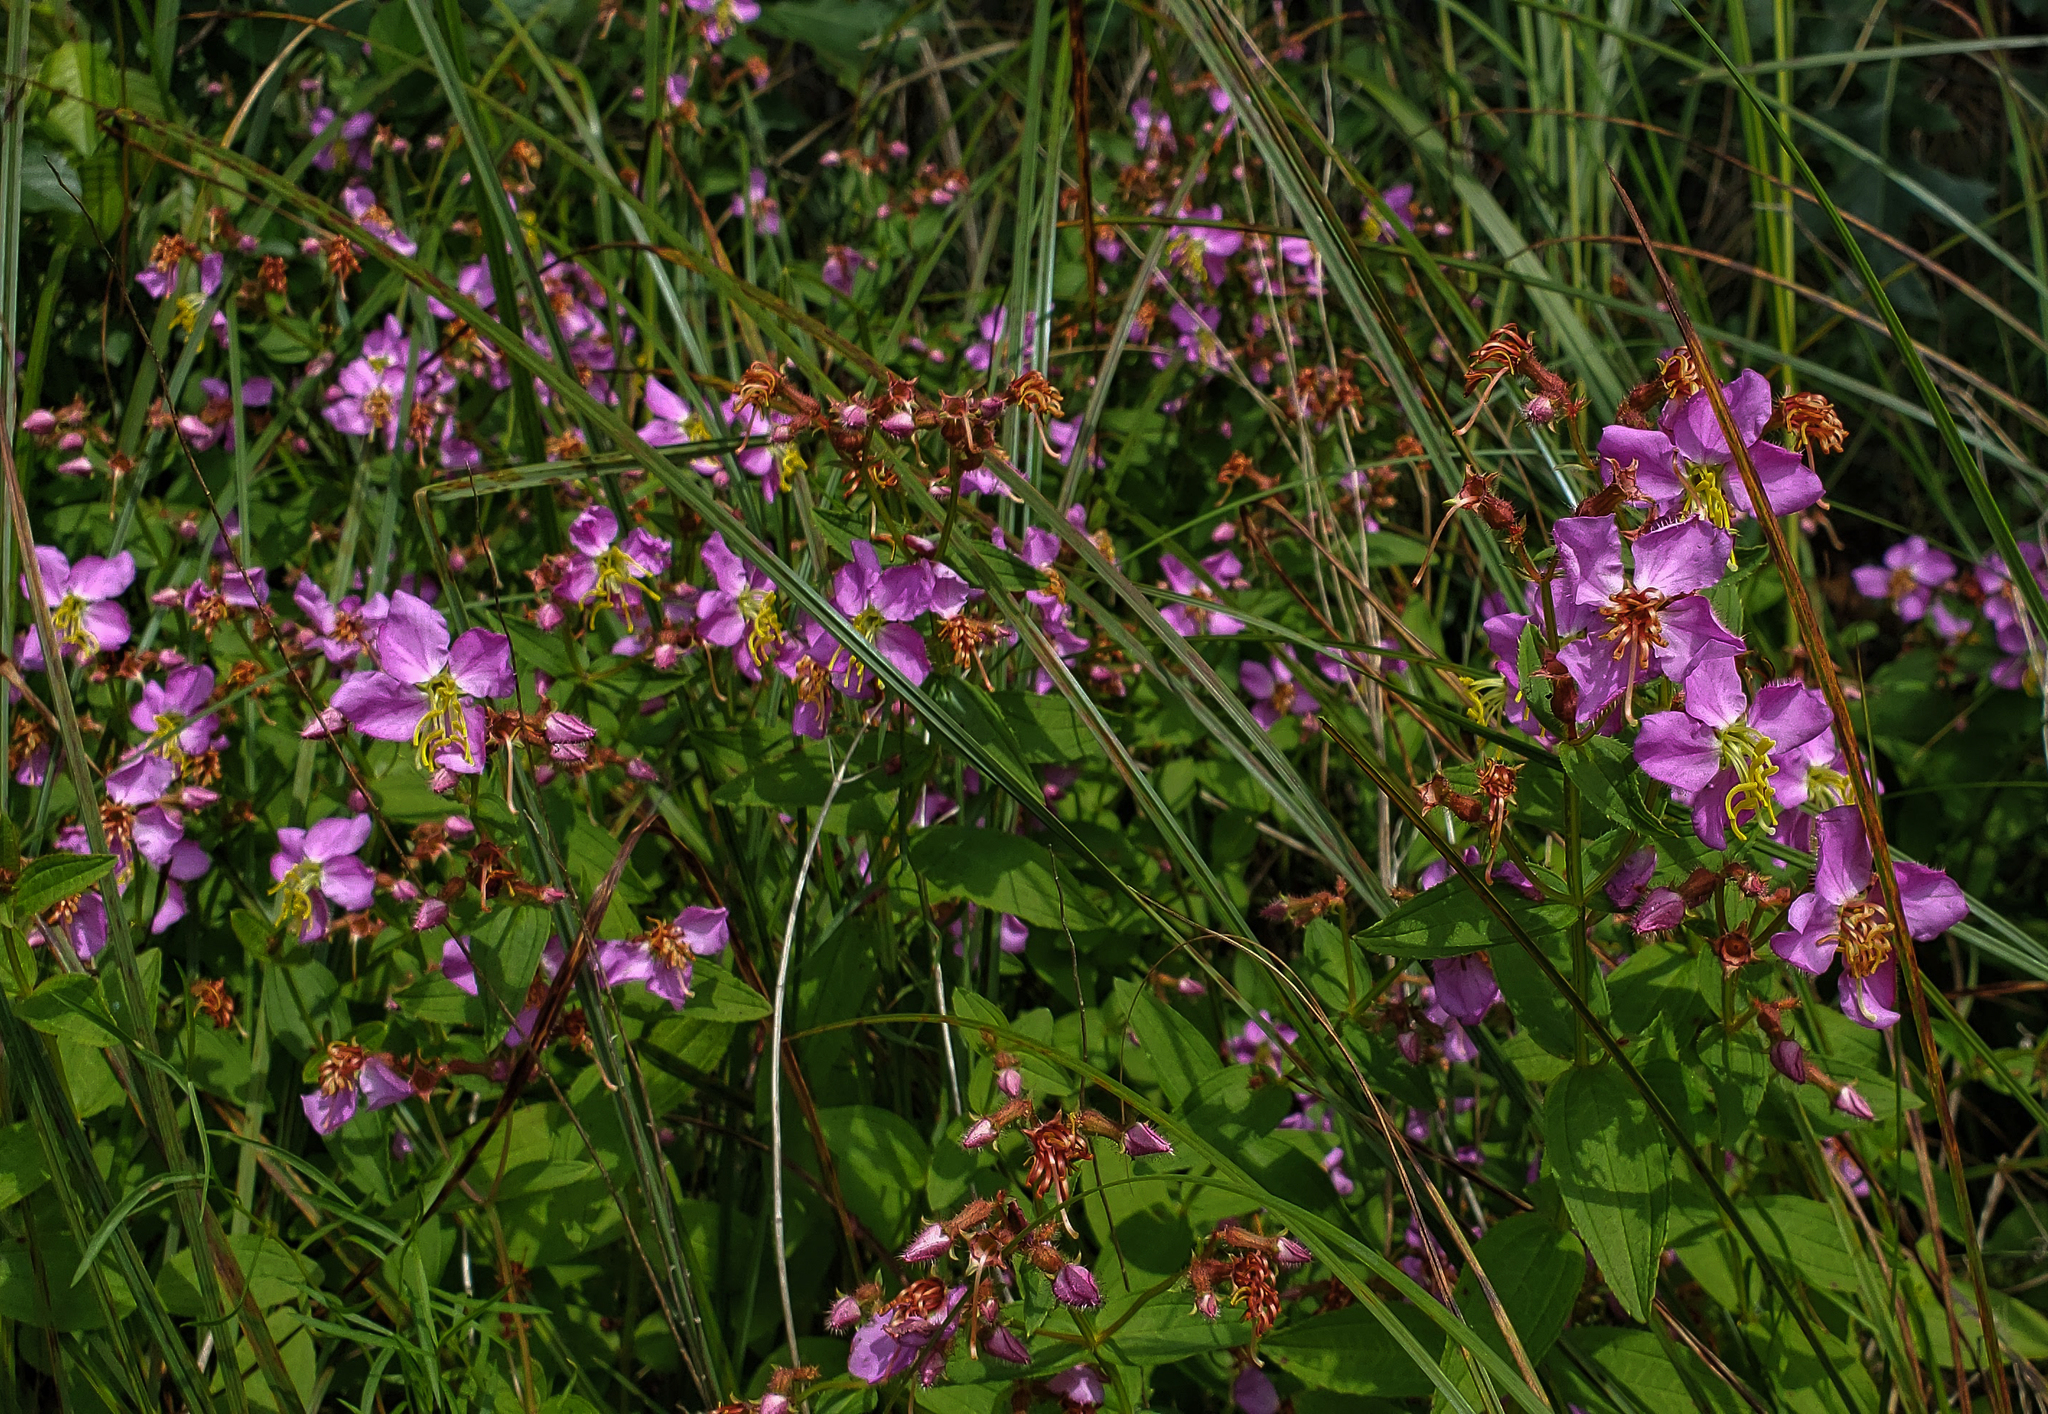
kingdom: Plantae
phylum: Tracheophyta
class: Magnoliopsida
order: Myrtales
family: Melastomataceae
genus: Rhexia
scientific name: Rhexia virginica
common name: Common meadow beauty
